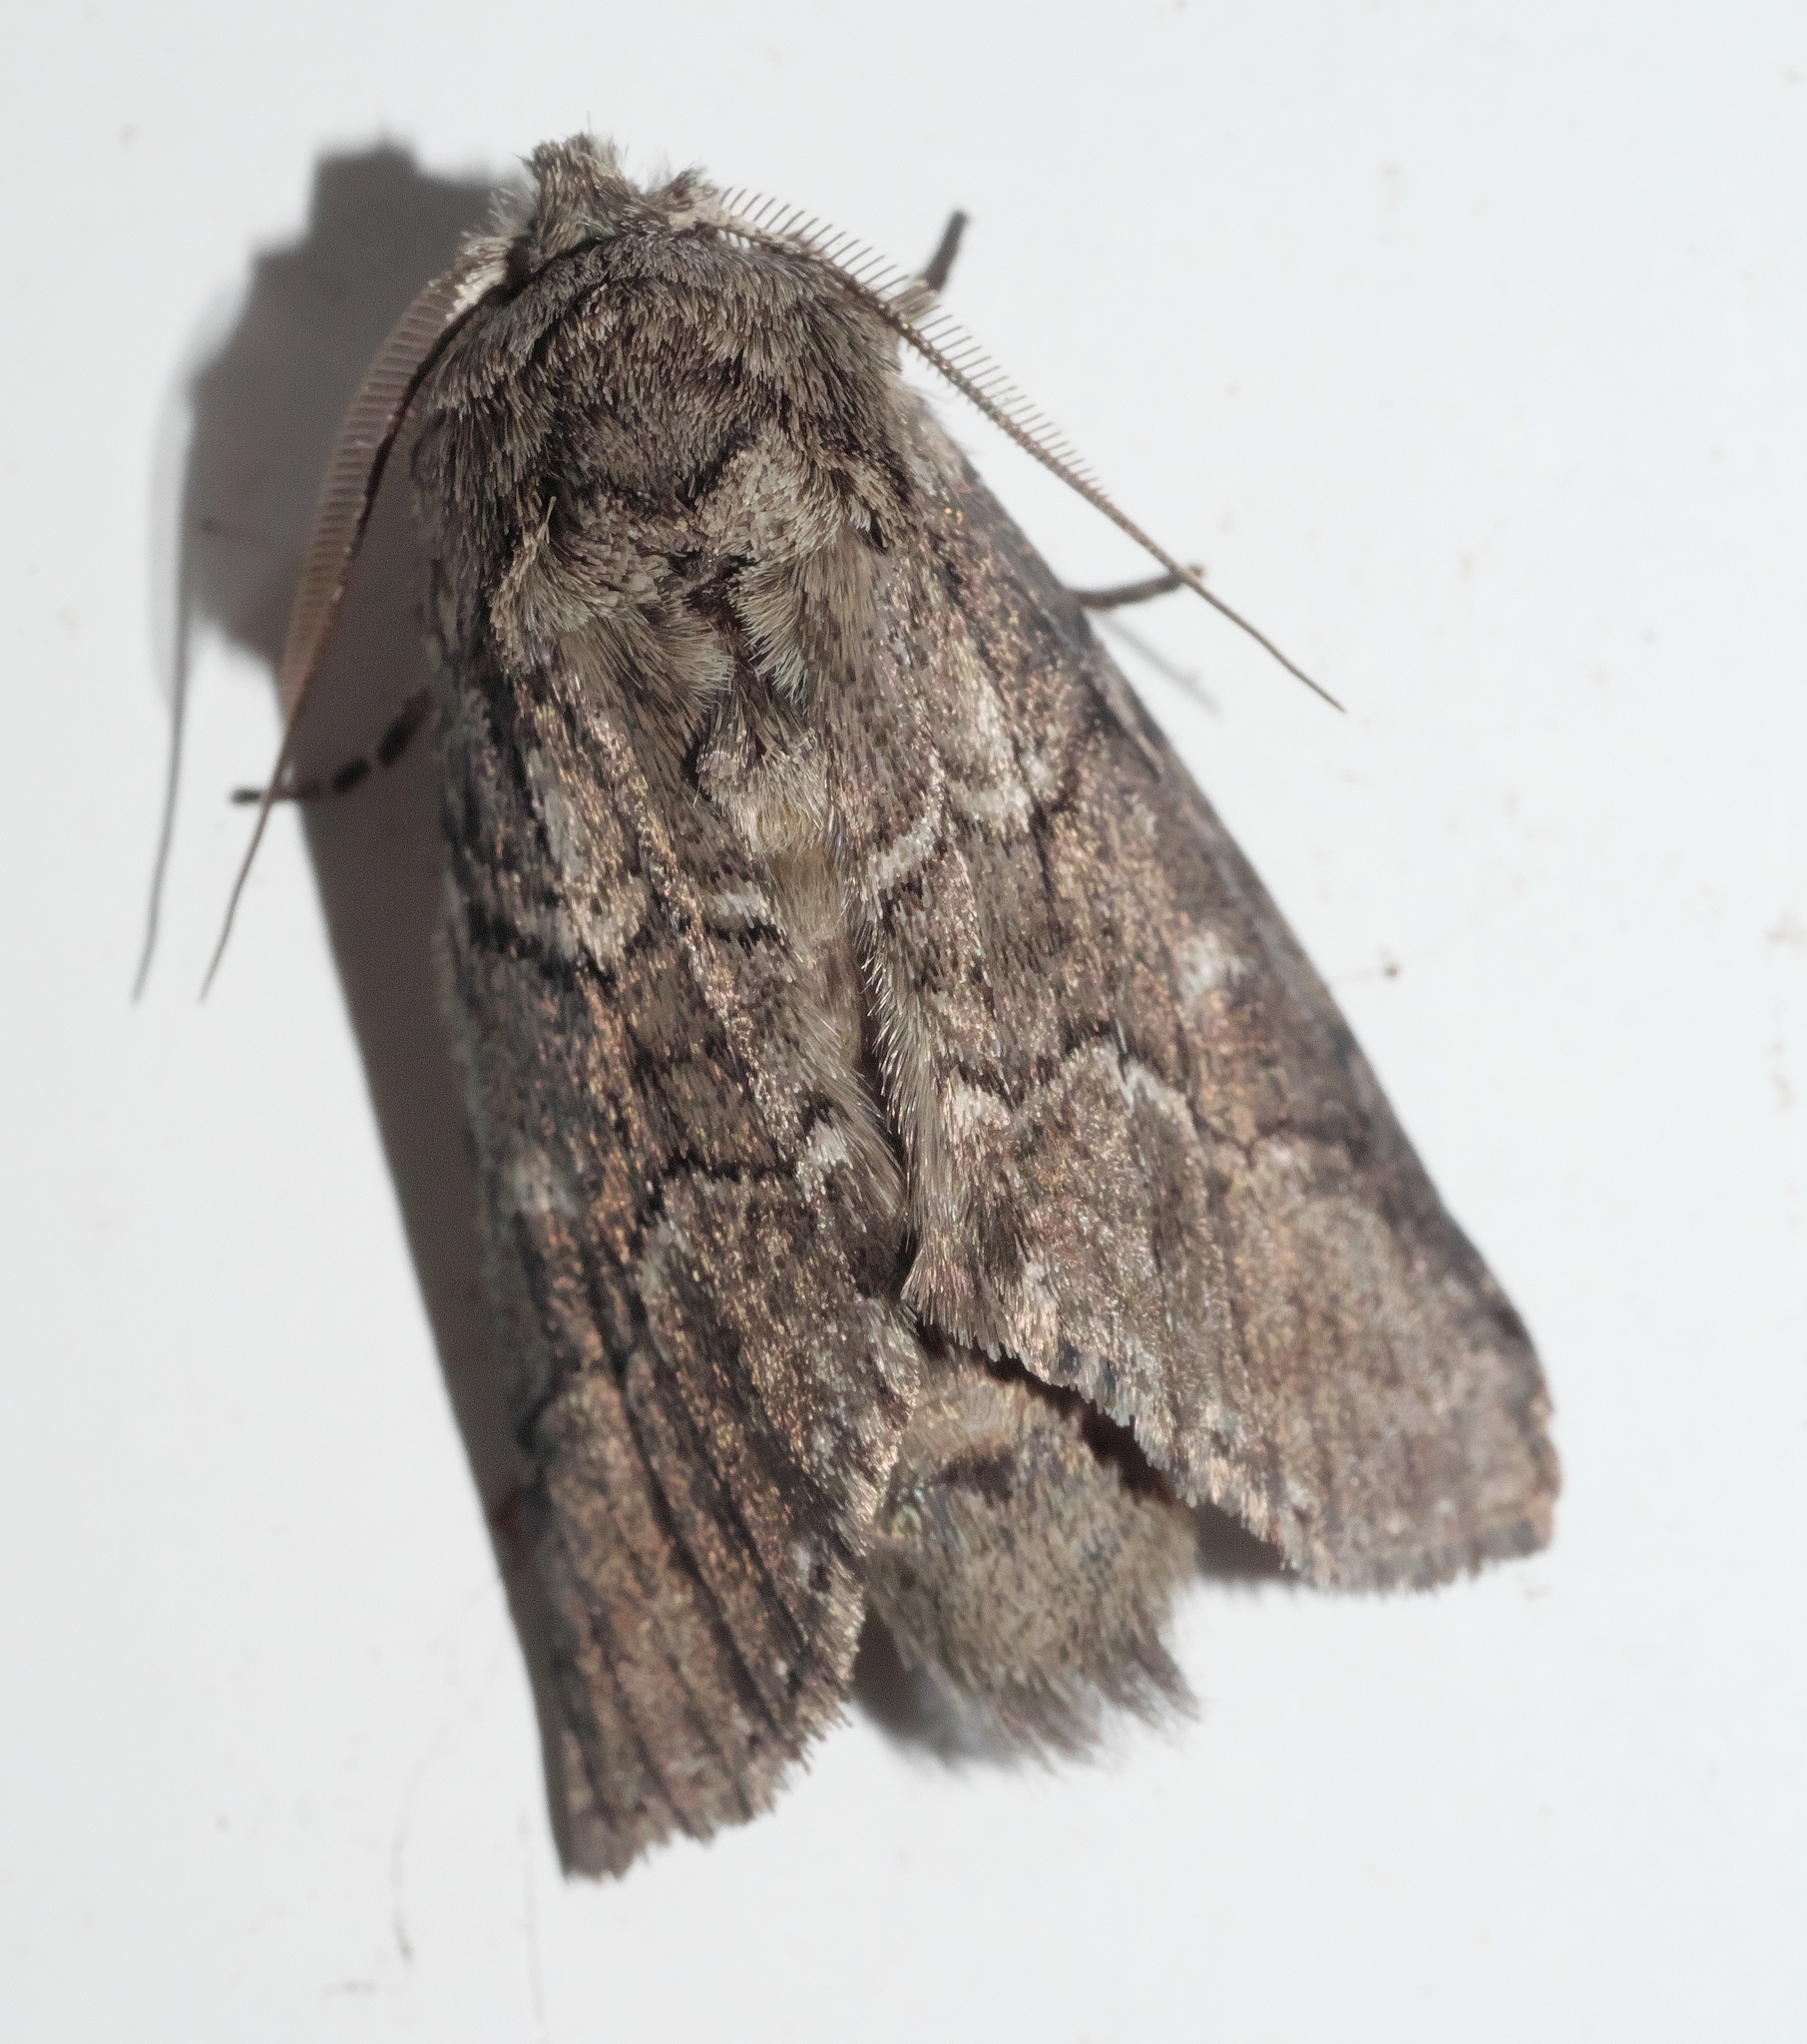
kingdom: Animalia
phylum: Arthropoda
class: Insecta
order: Lepidoptera
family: Notodontidae
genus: Lochmaeus
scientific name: Lochmaeus bilineata
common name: Double-lined prominent
